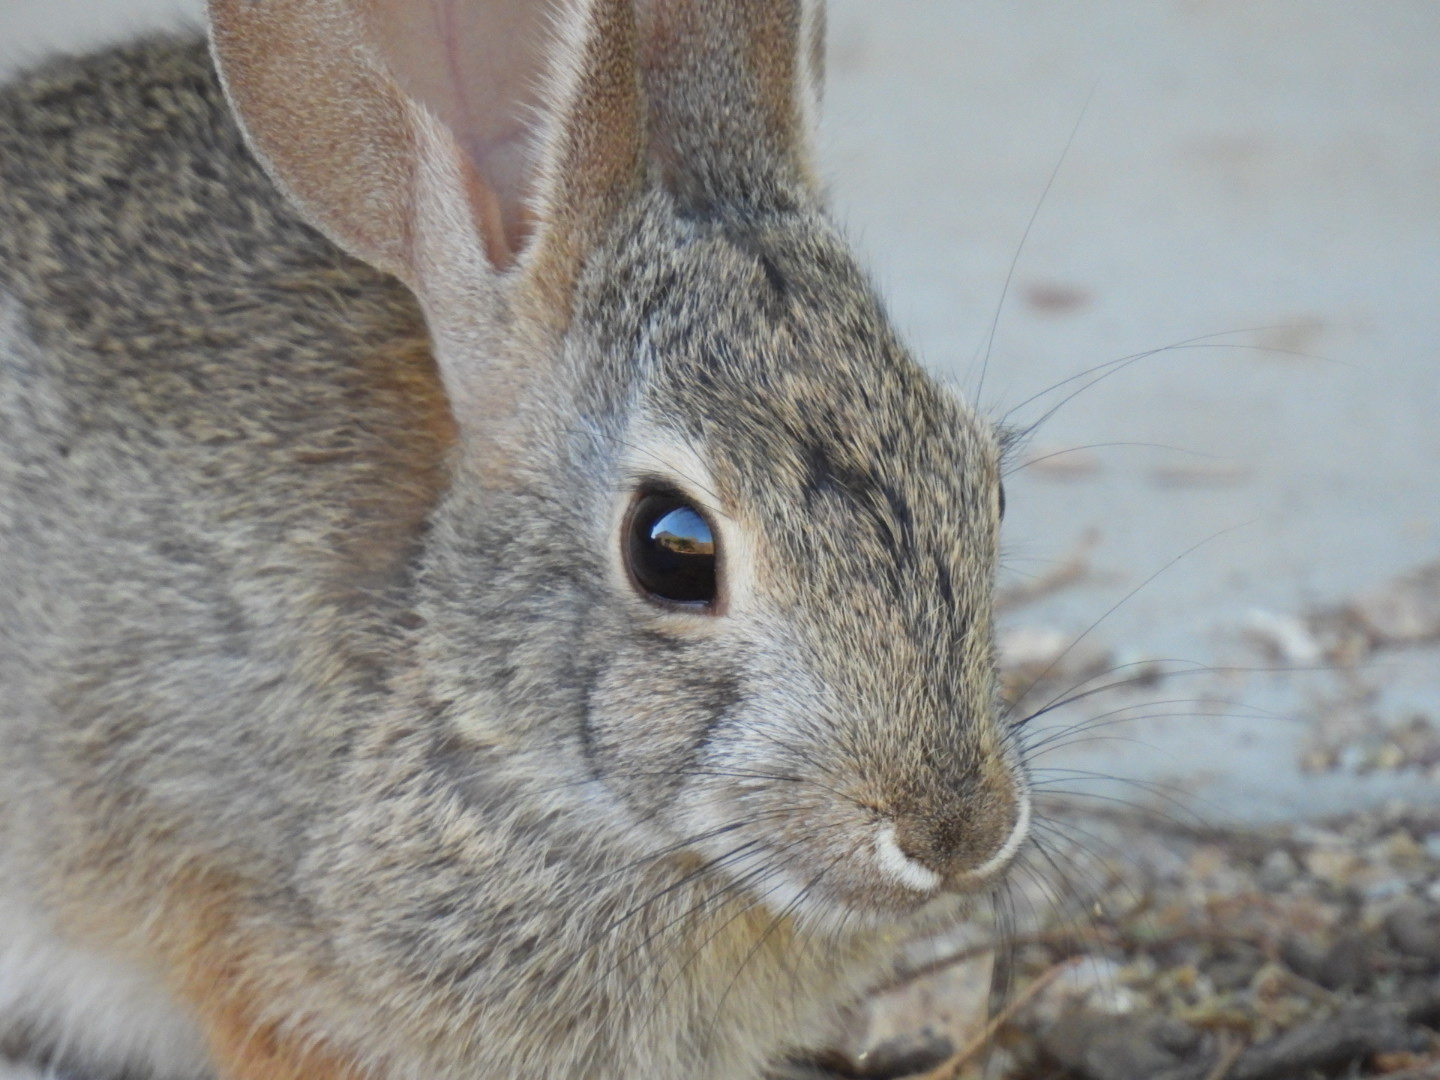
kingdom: Animalia
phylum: Chordata
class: Mammalia
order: Lagomorpha
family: Leporidae
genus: Sylvilagus
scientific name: Sylvilagus audubonii
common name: Desert cottontail
